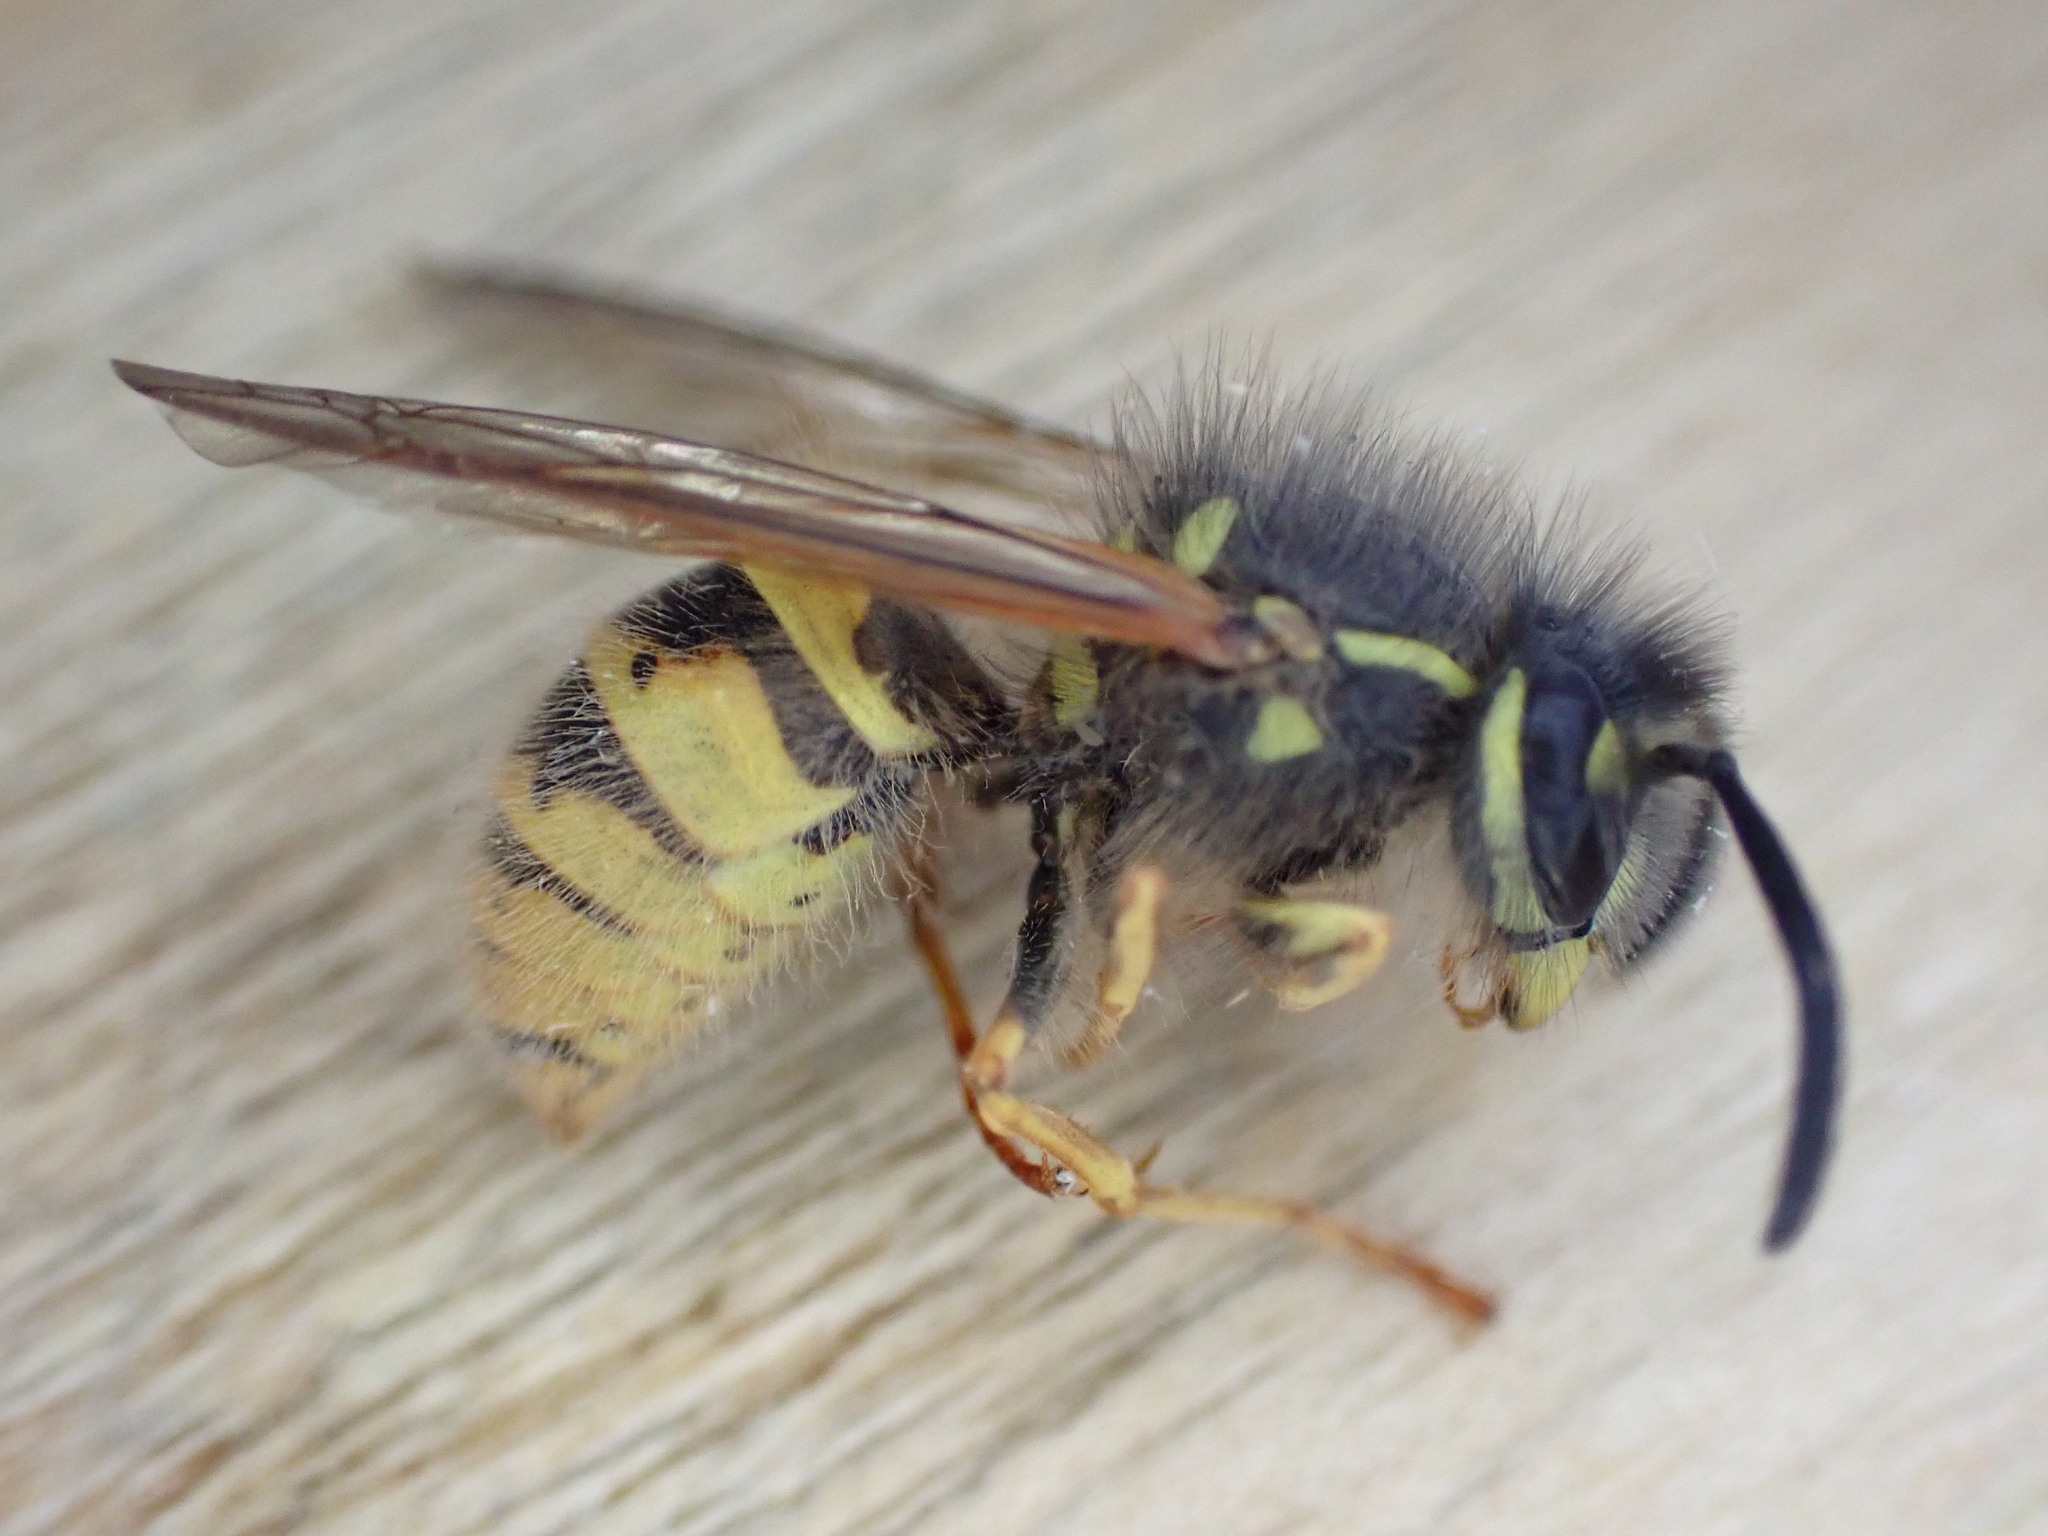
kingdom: Animalia
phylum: Arthropoda
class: Insecta
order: Hymenoptera
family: Vespidae
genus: Vespula
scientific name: Vespula vulgaris
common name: Common wasp
